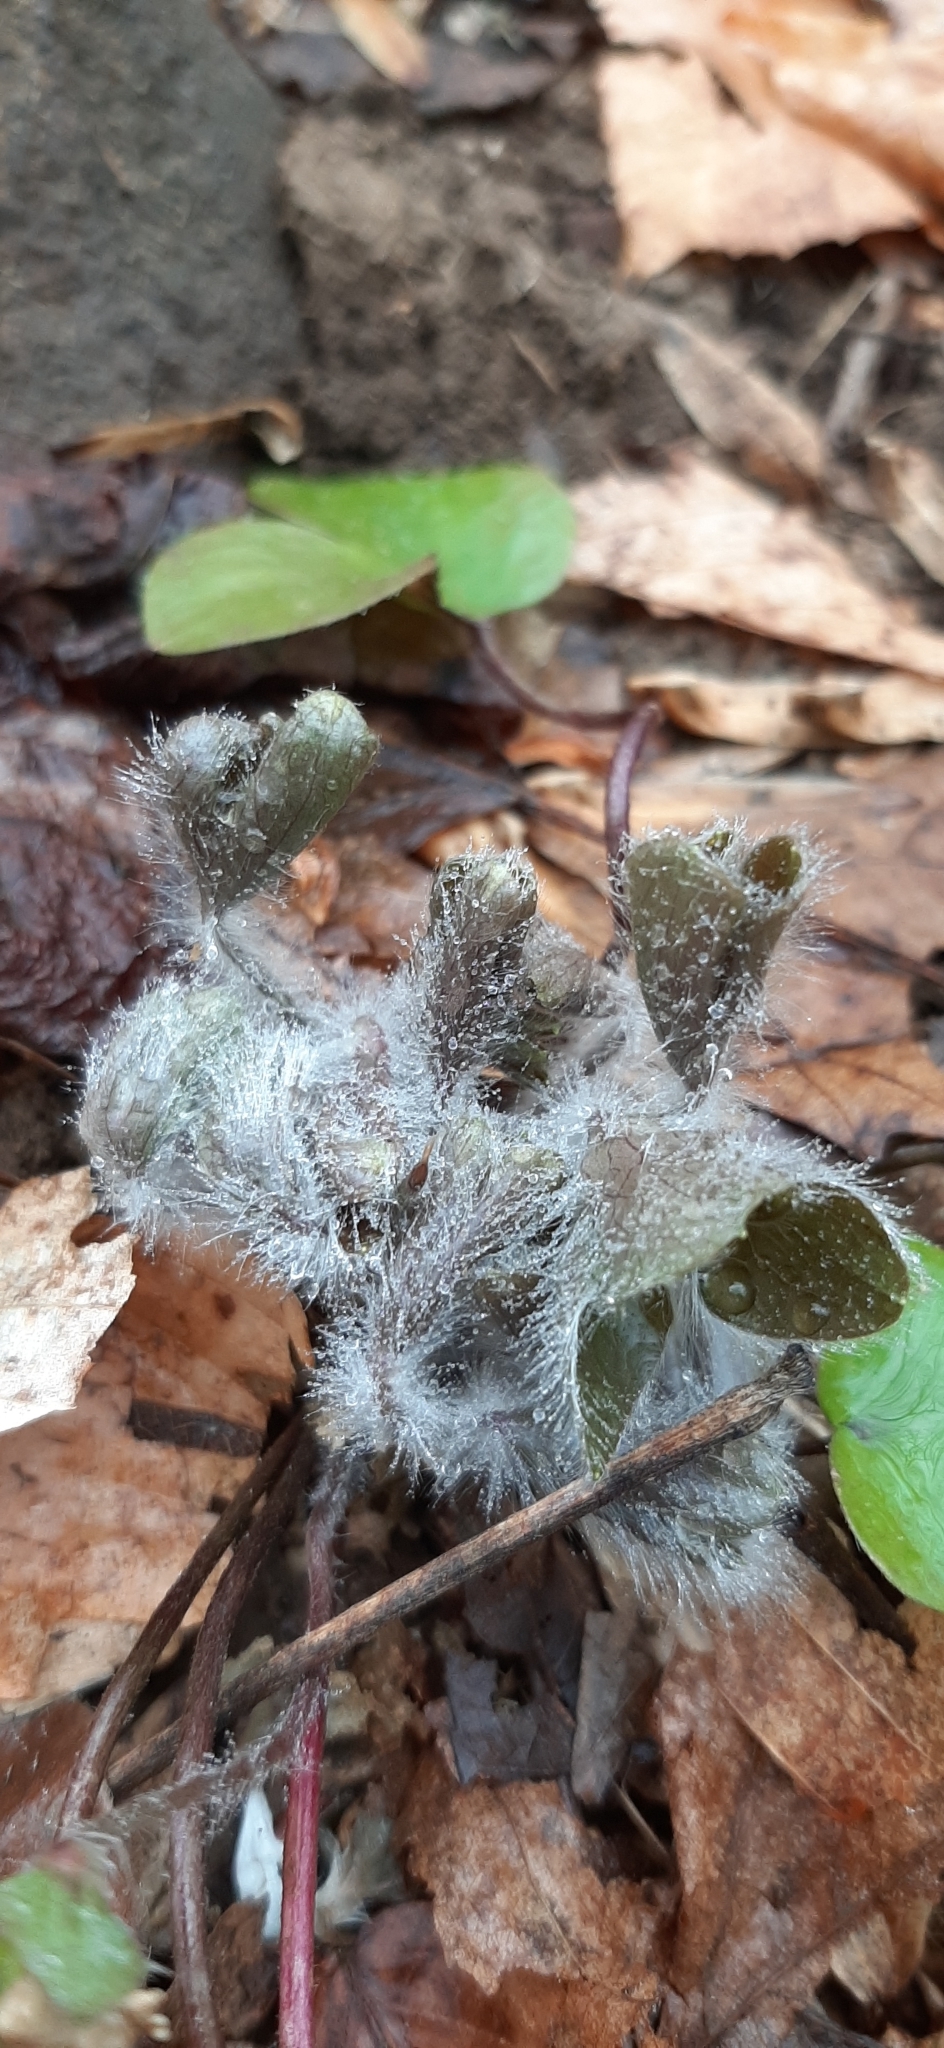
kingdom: Plantae
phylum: Tracheophyta
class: Magnoliopsida
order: Ranunculales
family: Ranunculaceae
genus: Hepatica
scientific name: Hepatica americana
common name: American hepatica
